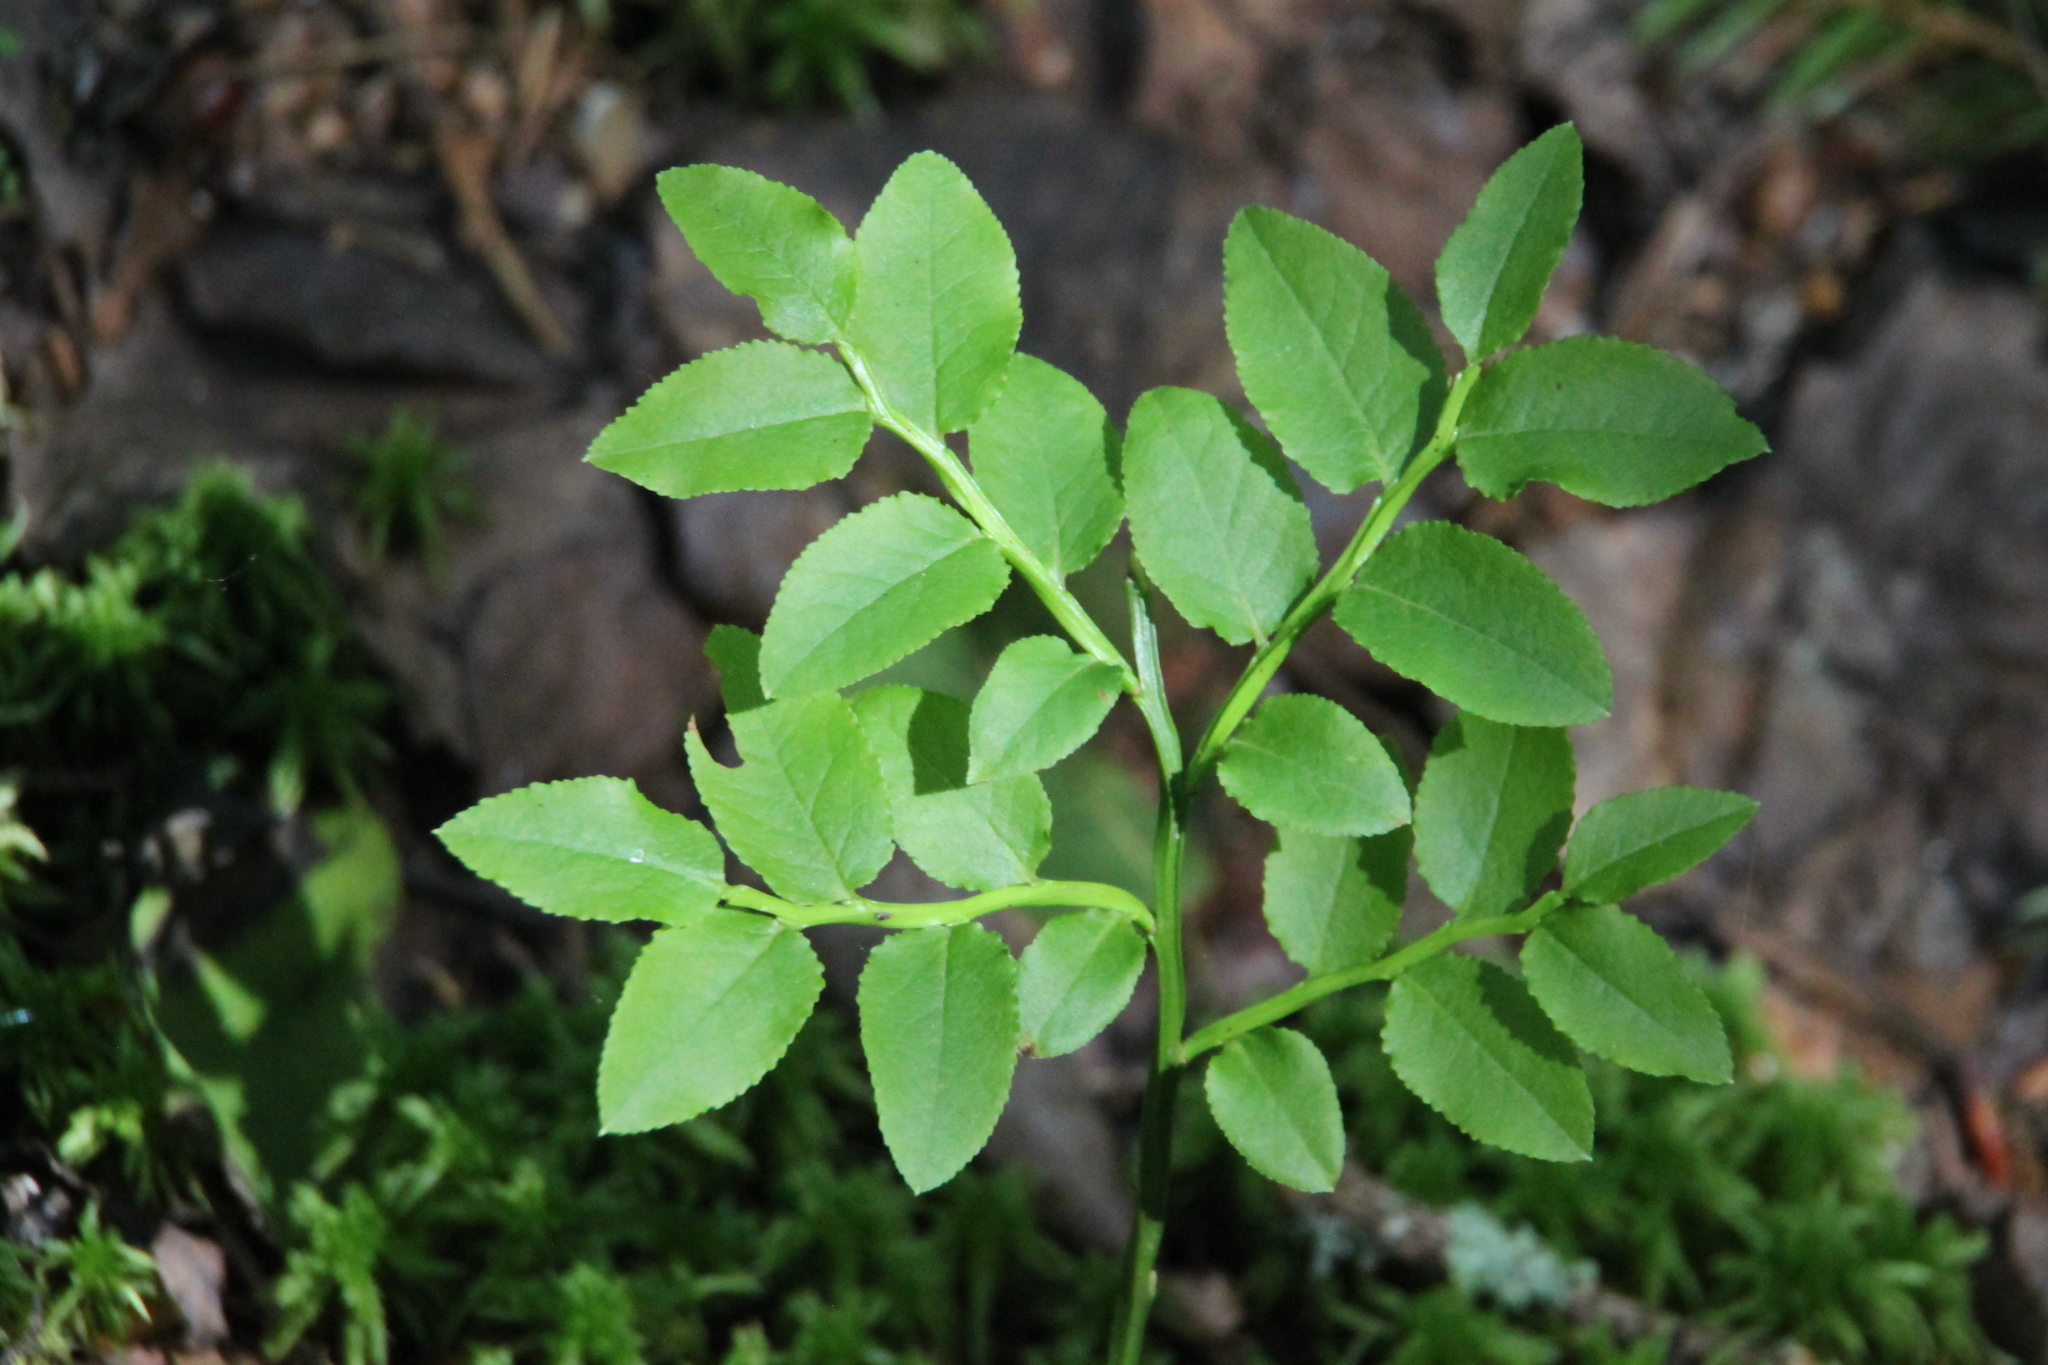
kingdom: Plantae
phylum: Tracheophyta
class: Magnoliopsida
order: Ericales
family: Ericaceae
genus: Vaccinium
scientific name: Vaccinium myrtillus
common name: Bilberry
